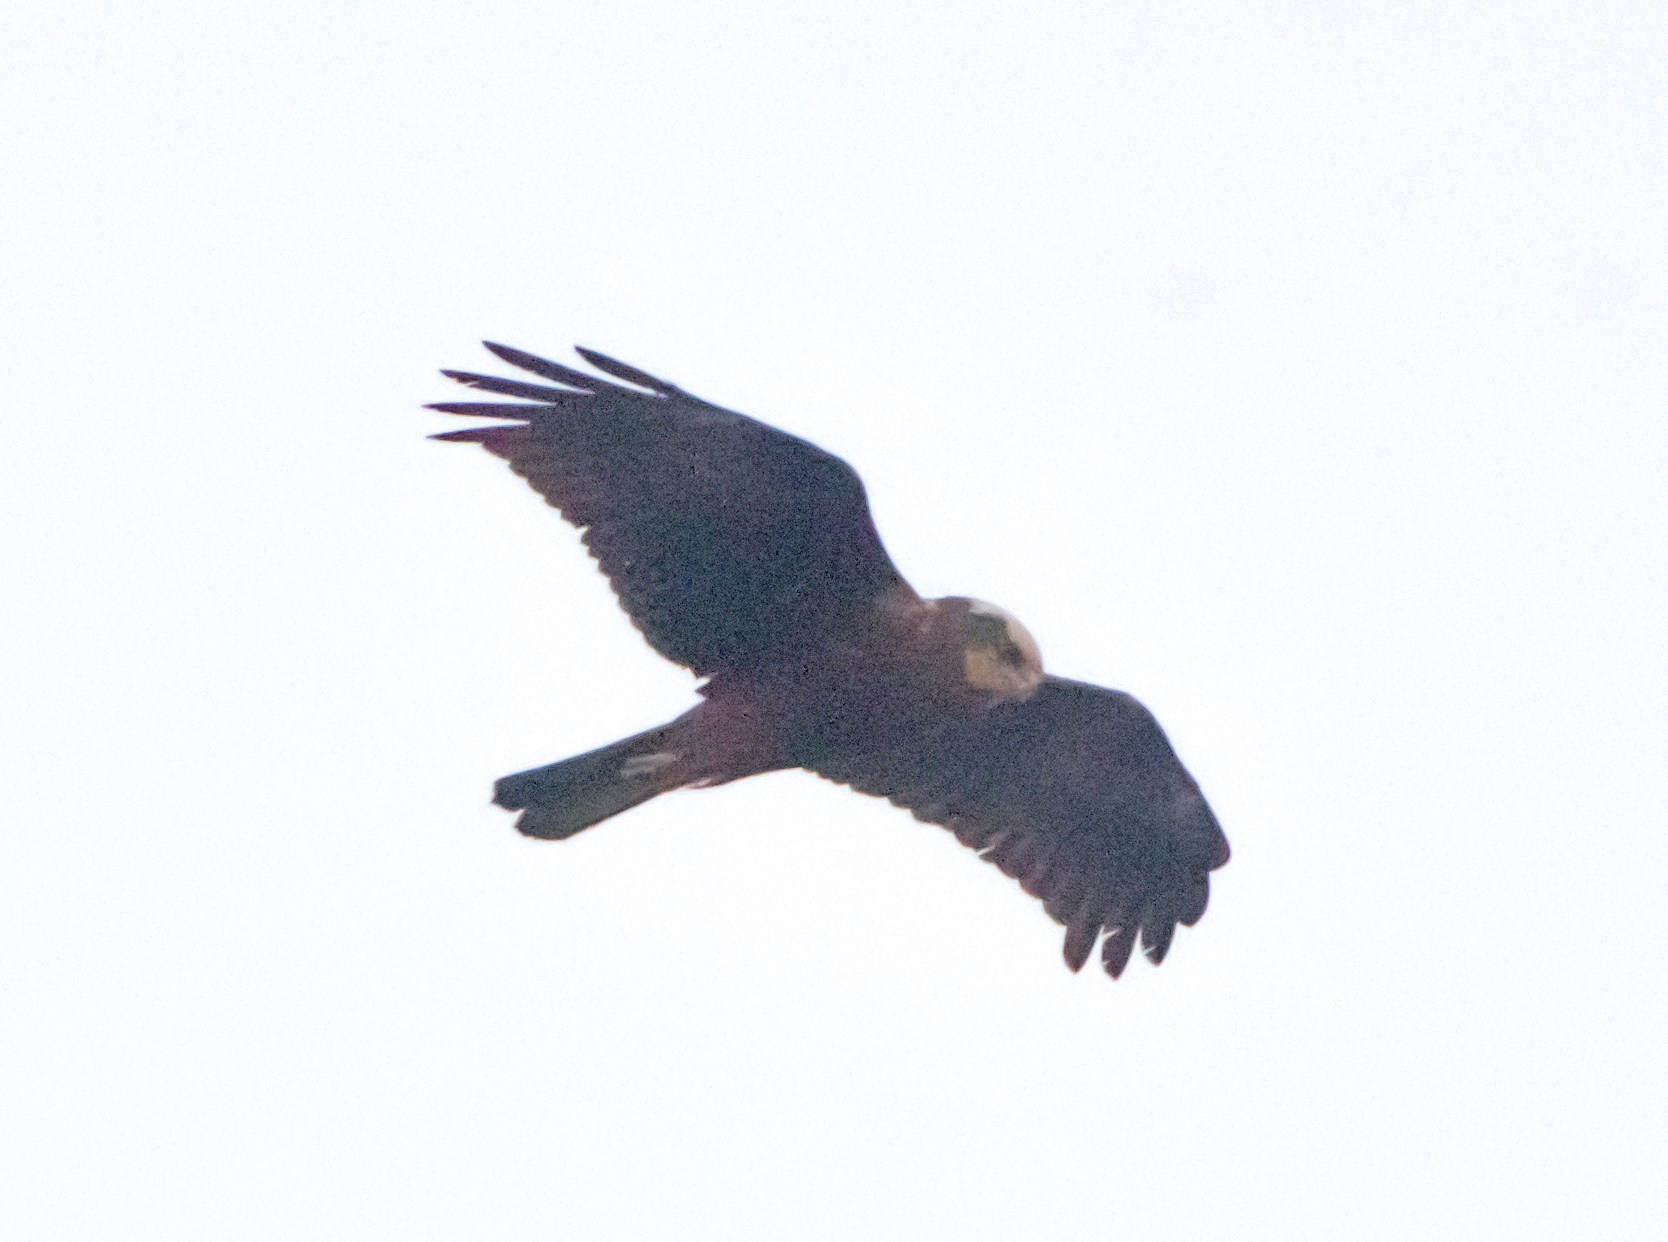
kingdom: Animalia
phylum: Chordata
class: Aves
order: Accipitriformes
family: Accipitridae
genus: Circus
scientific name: Circus aeruginosus
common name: Western marsh harrier
